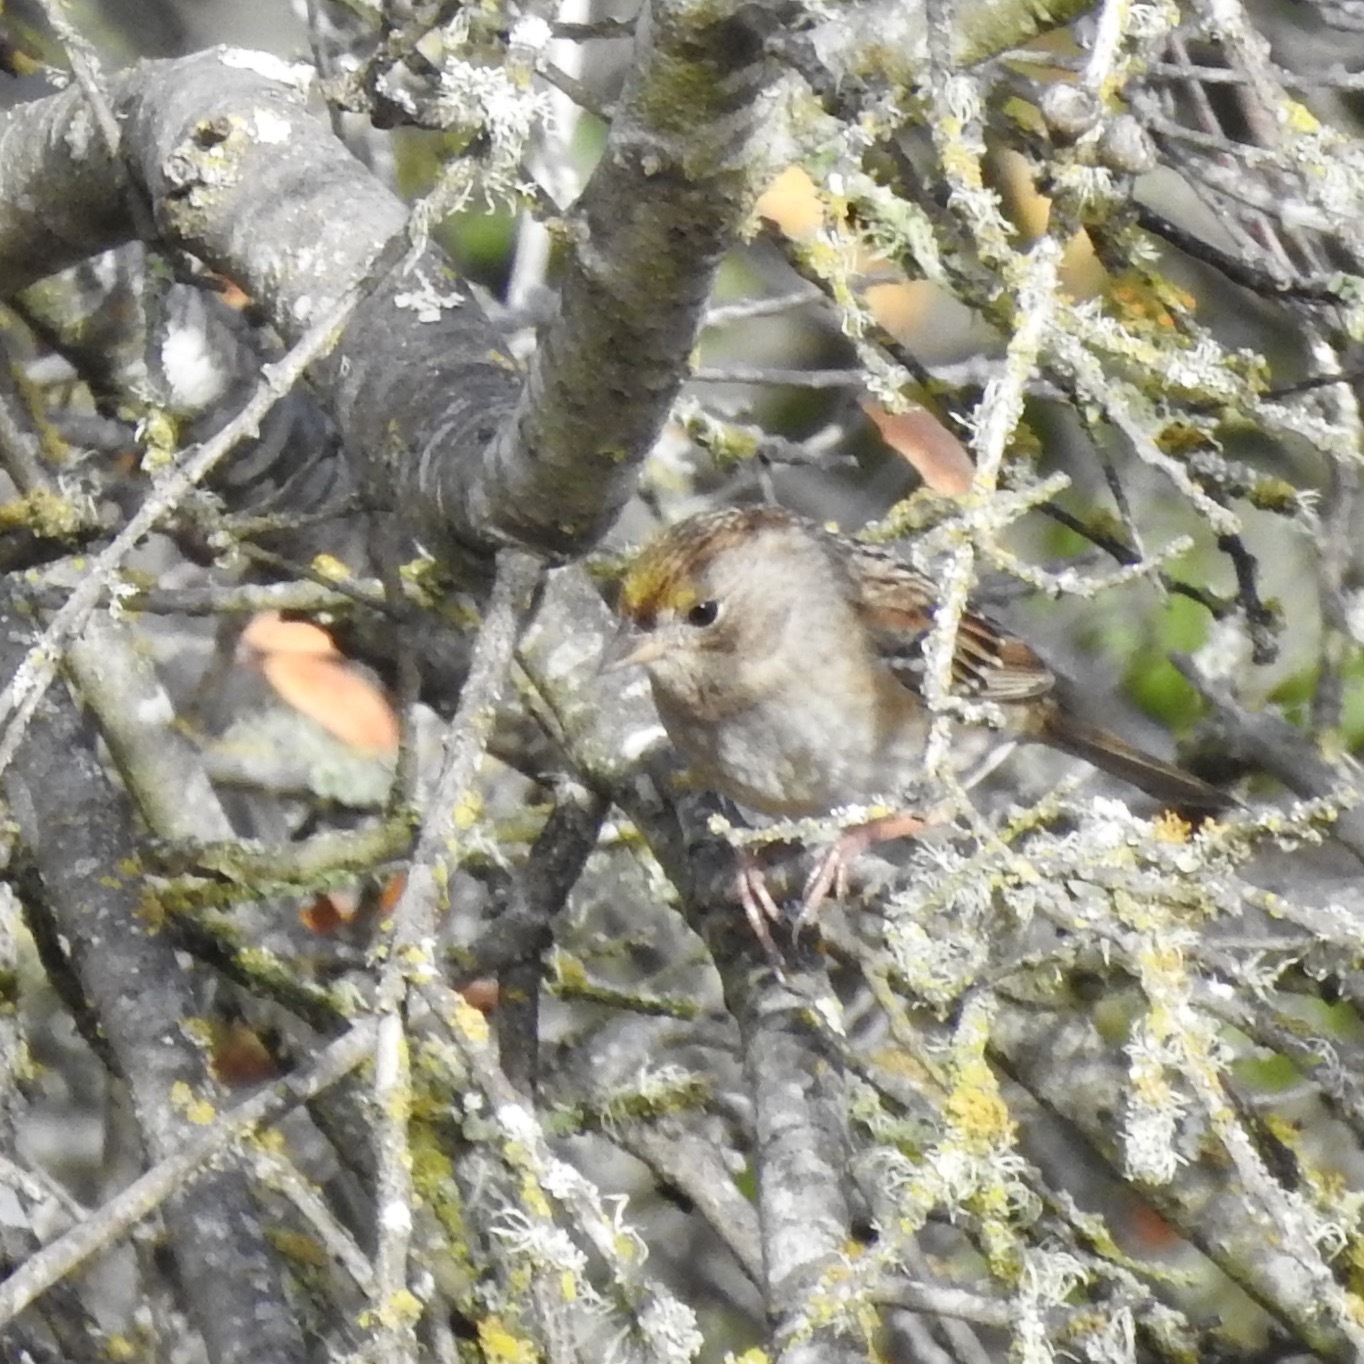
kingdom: Animalia
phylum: Chordata
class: Aves
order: Passeriformes
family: Passerellidae
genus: Zonotrichia
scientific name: Zonotrichia atricapilla
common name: Golden-crowned sparrow
